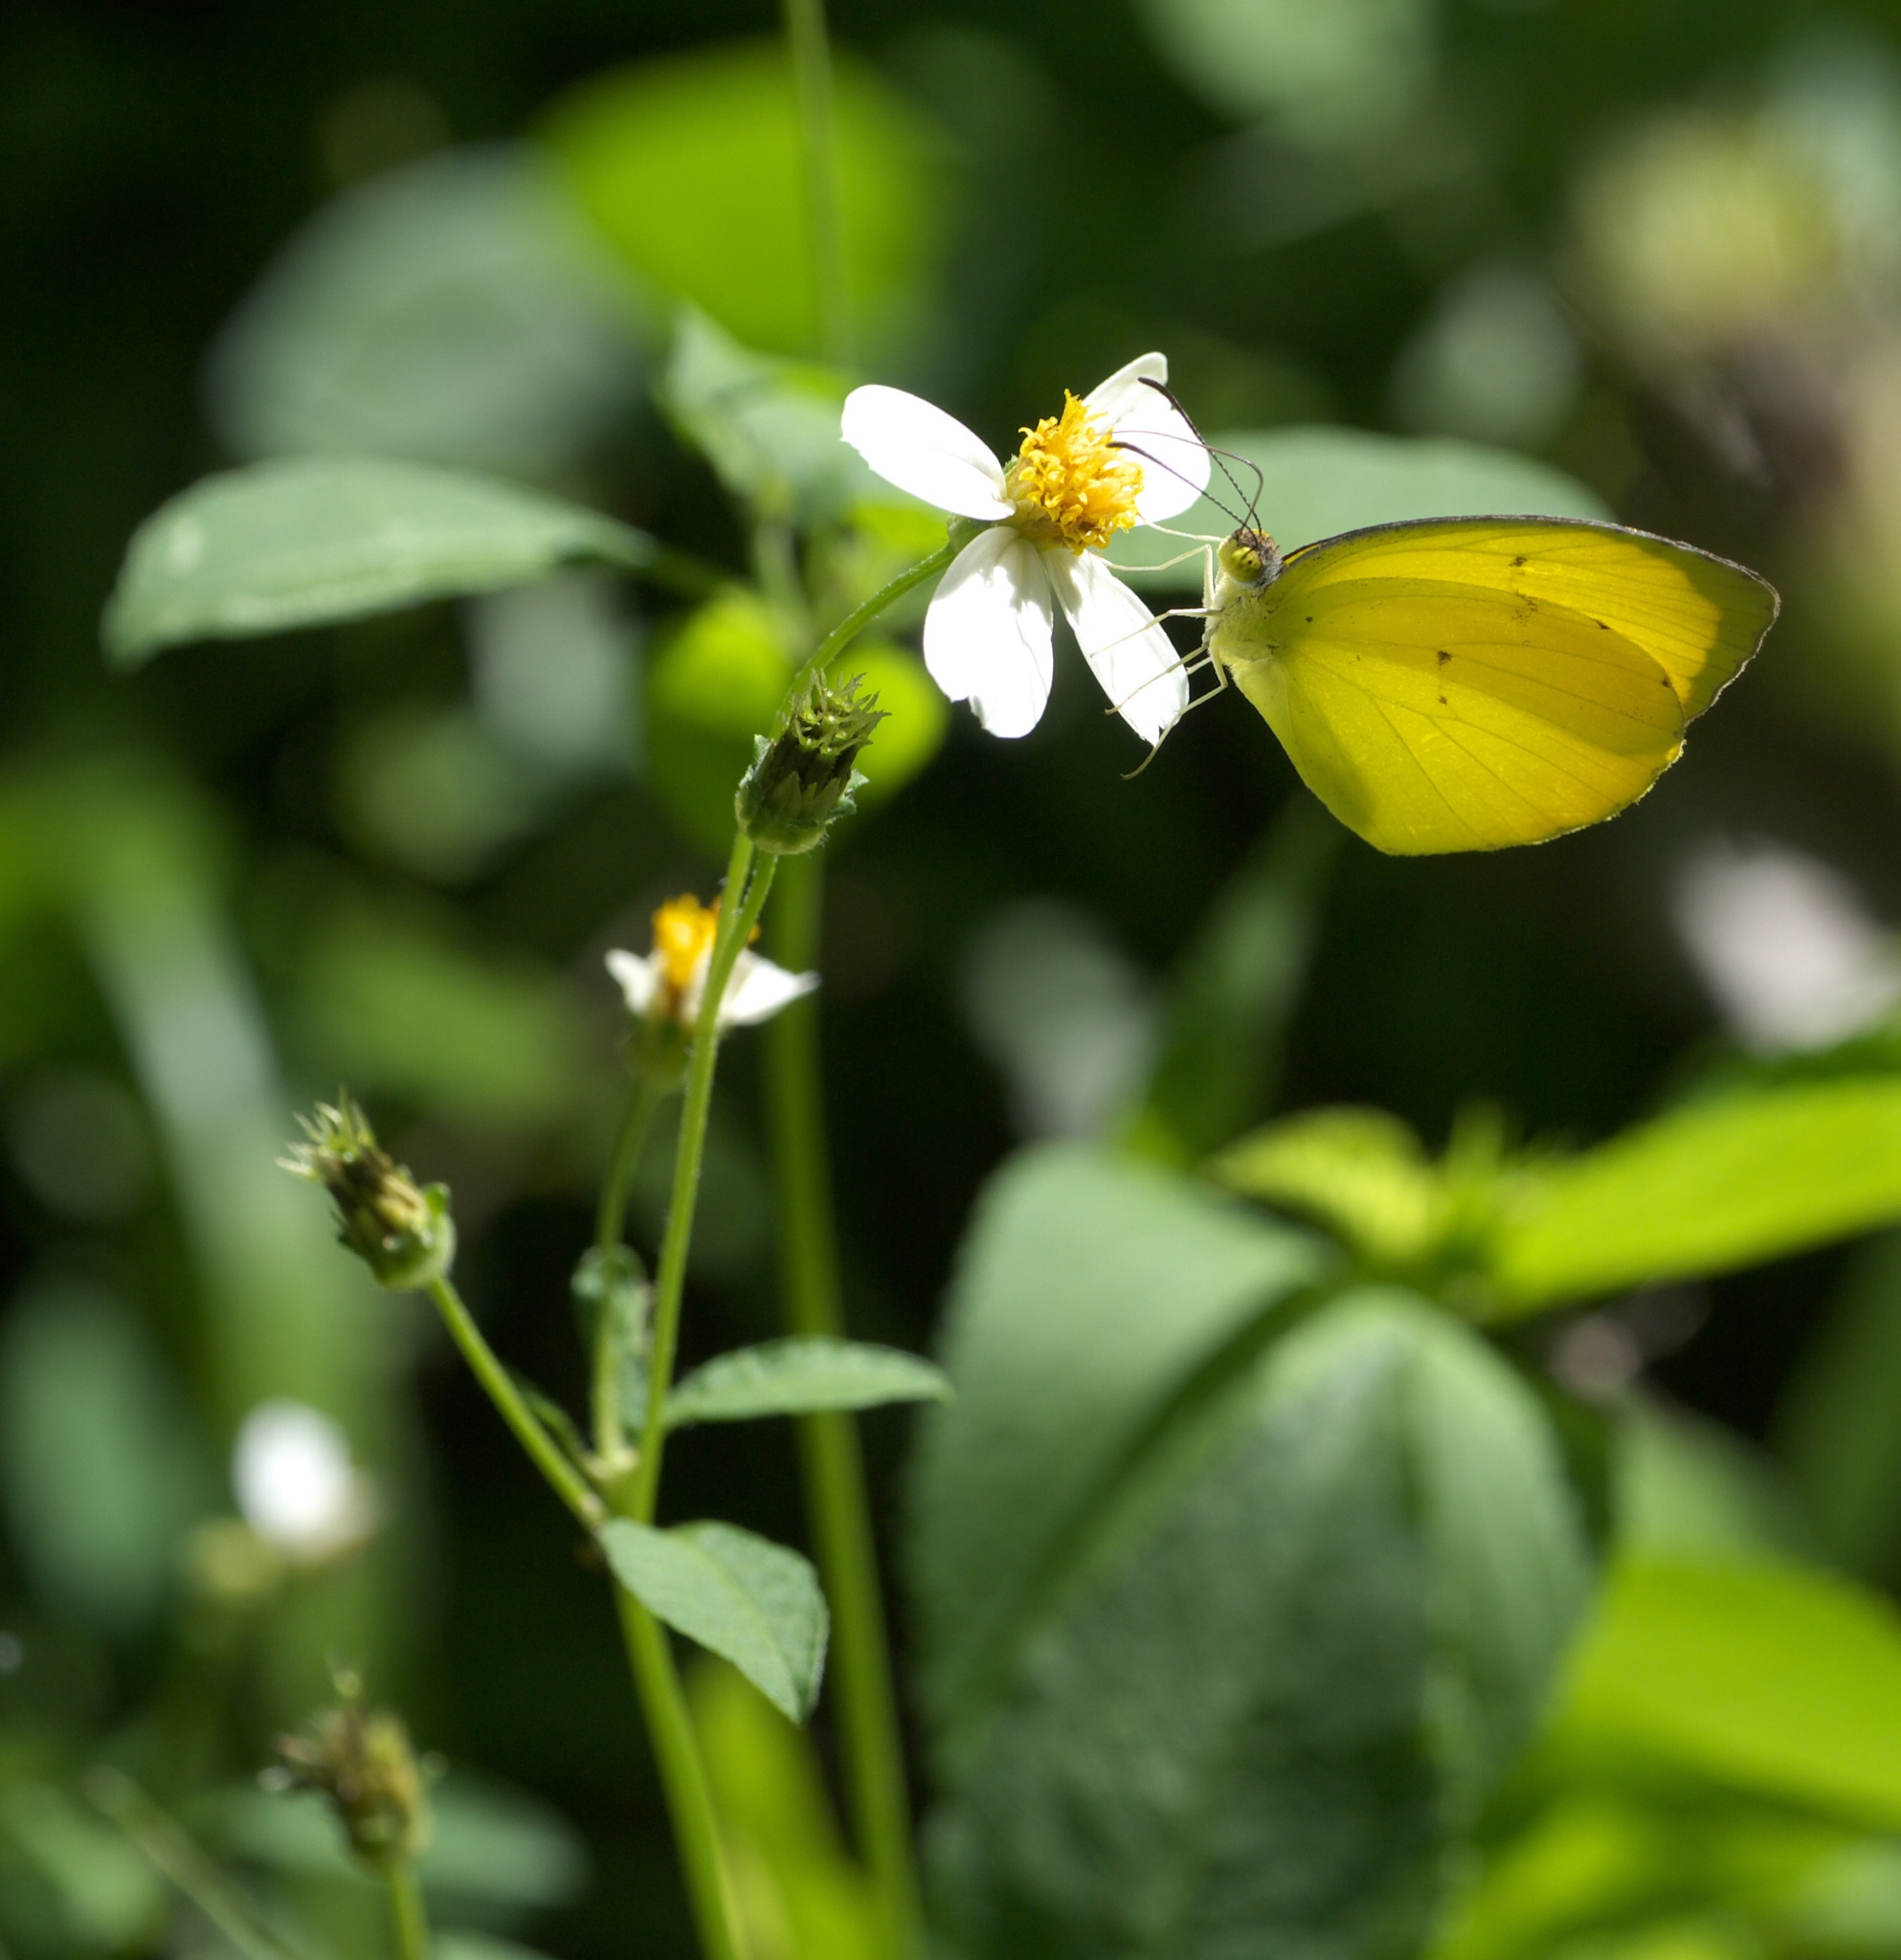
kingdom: Plantae
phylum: Tracheophyta
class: Magnoliopsida
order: Asterales
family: Asteraceae
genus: Bidens
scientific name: Bidens alba
